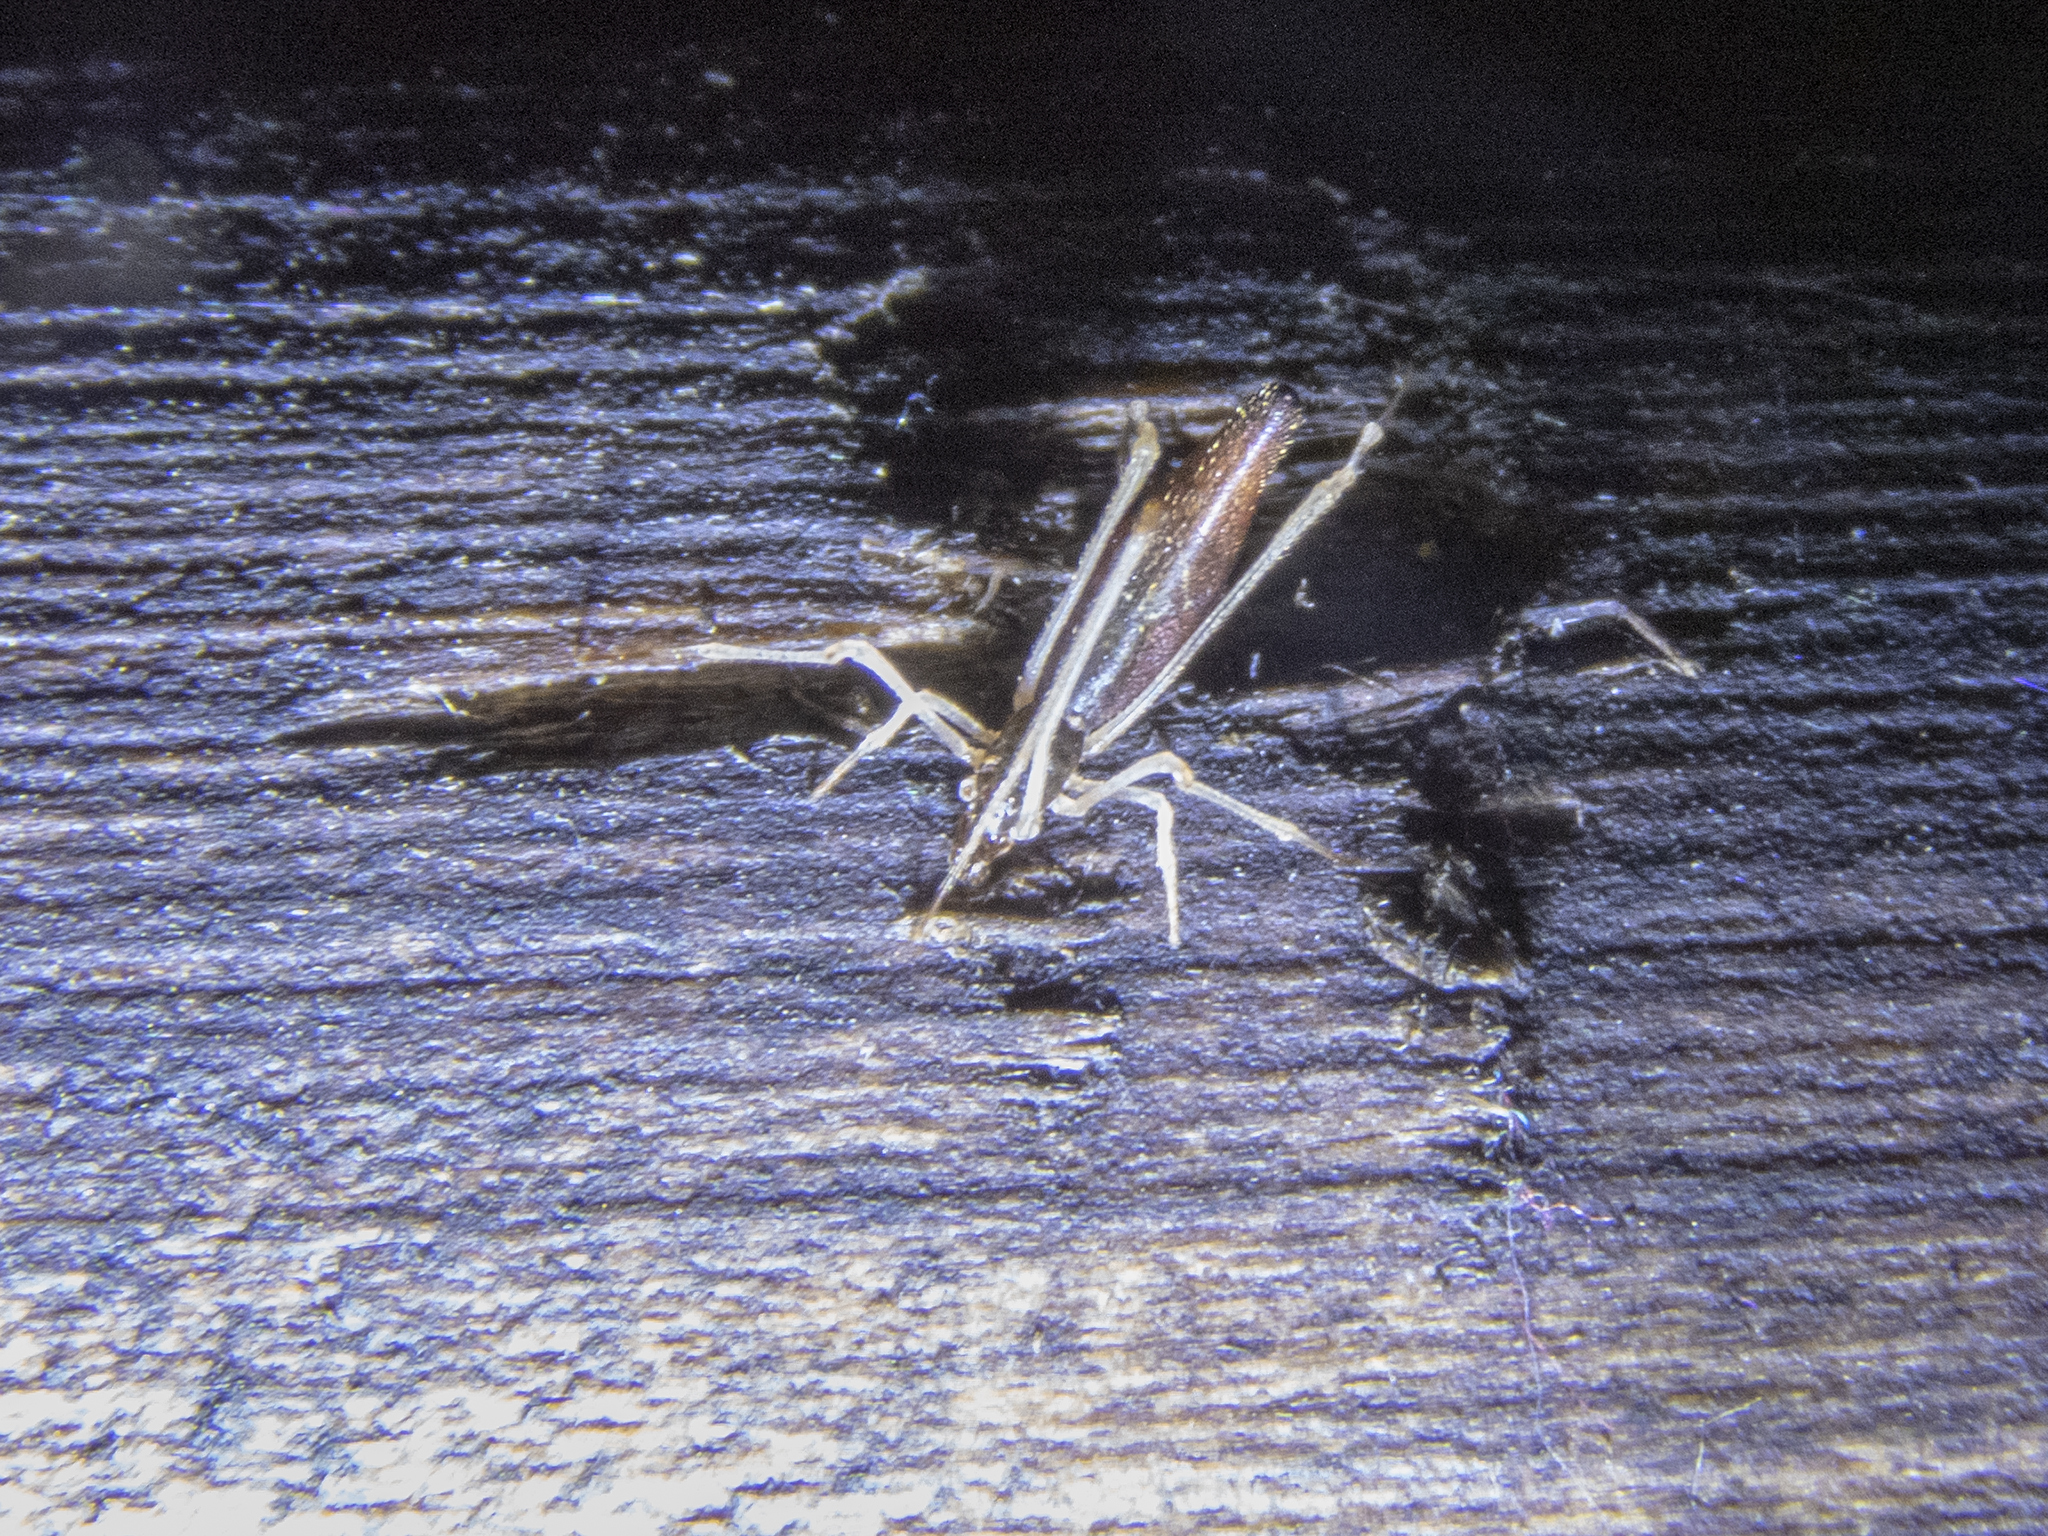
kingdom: Animalia
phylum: Arthropoda
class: Arachnida
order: Araneae
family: Theridiidae
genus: Rhomphaea
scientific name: Rhomphaea urquharti
